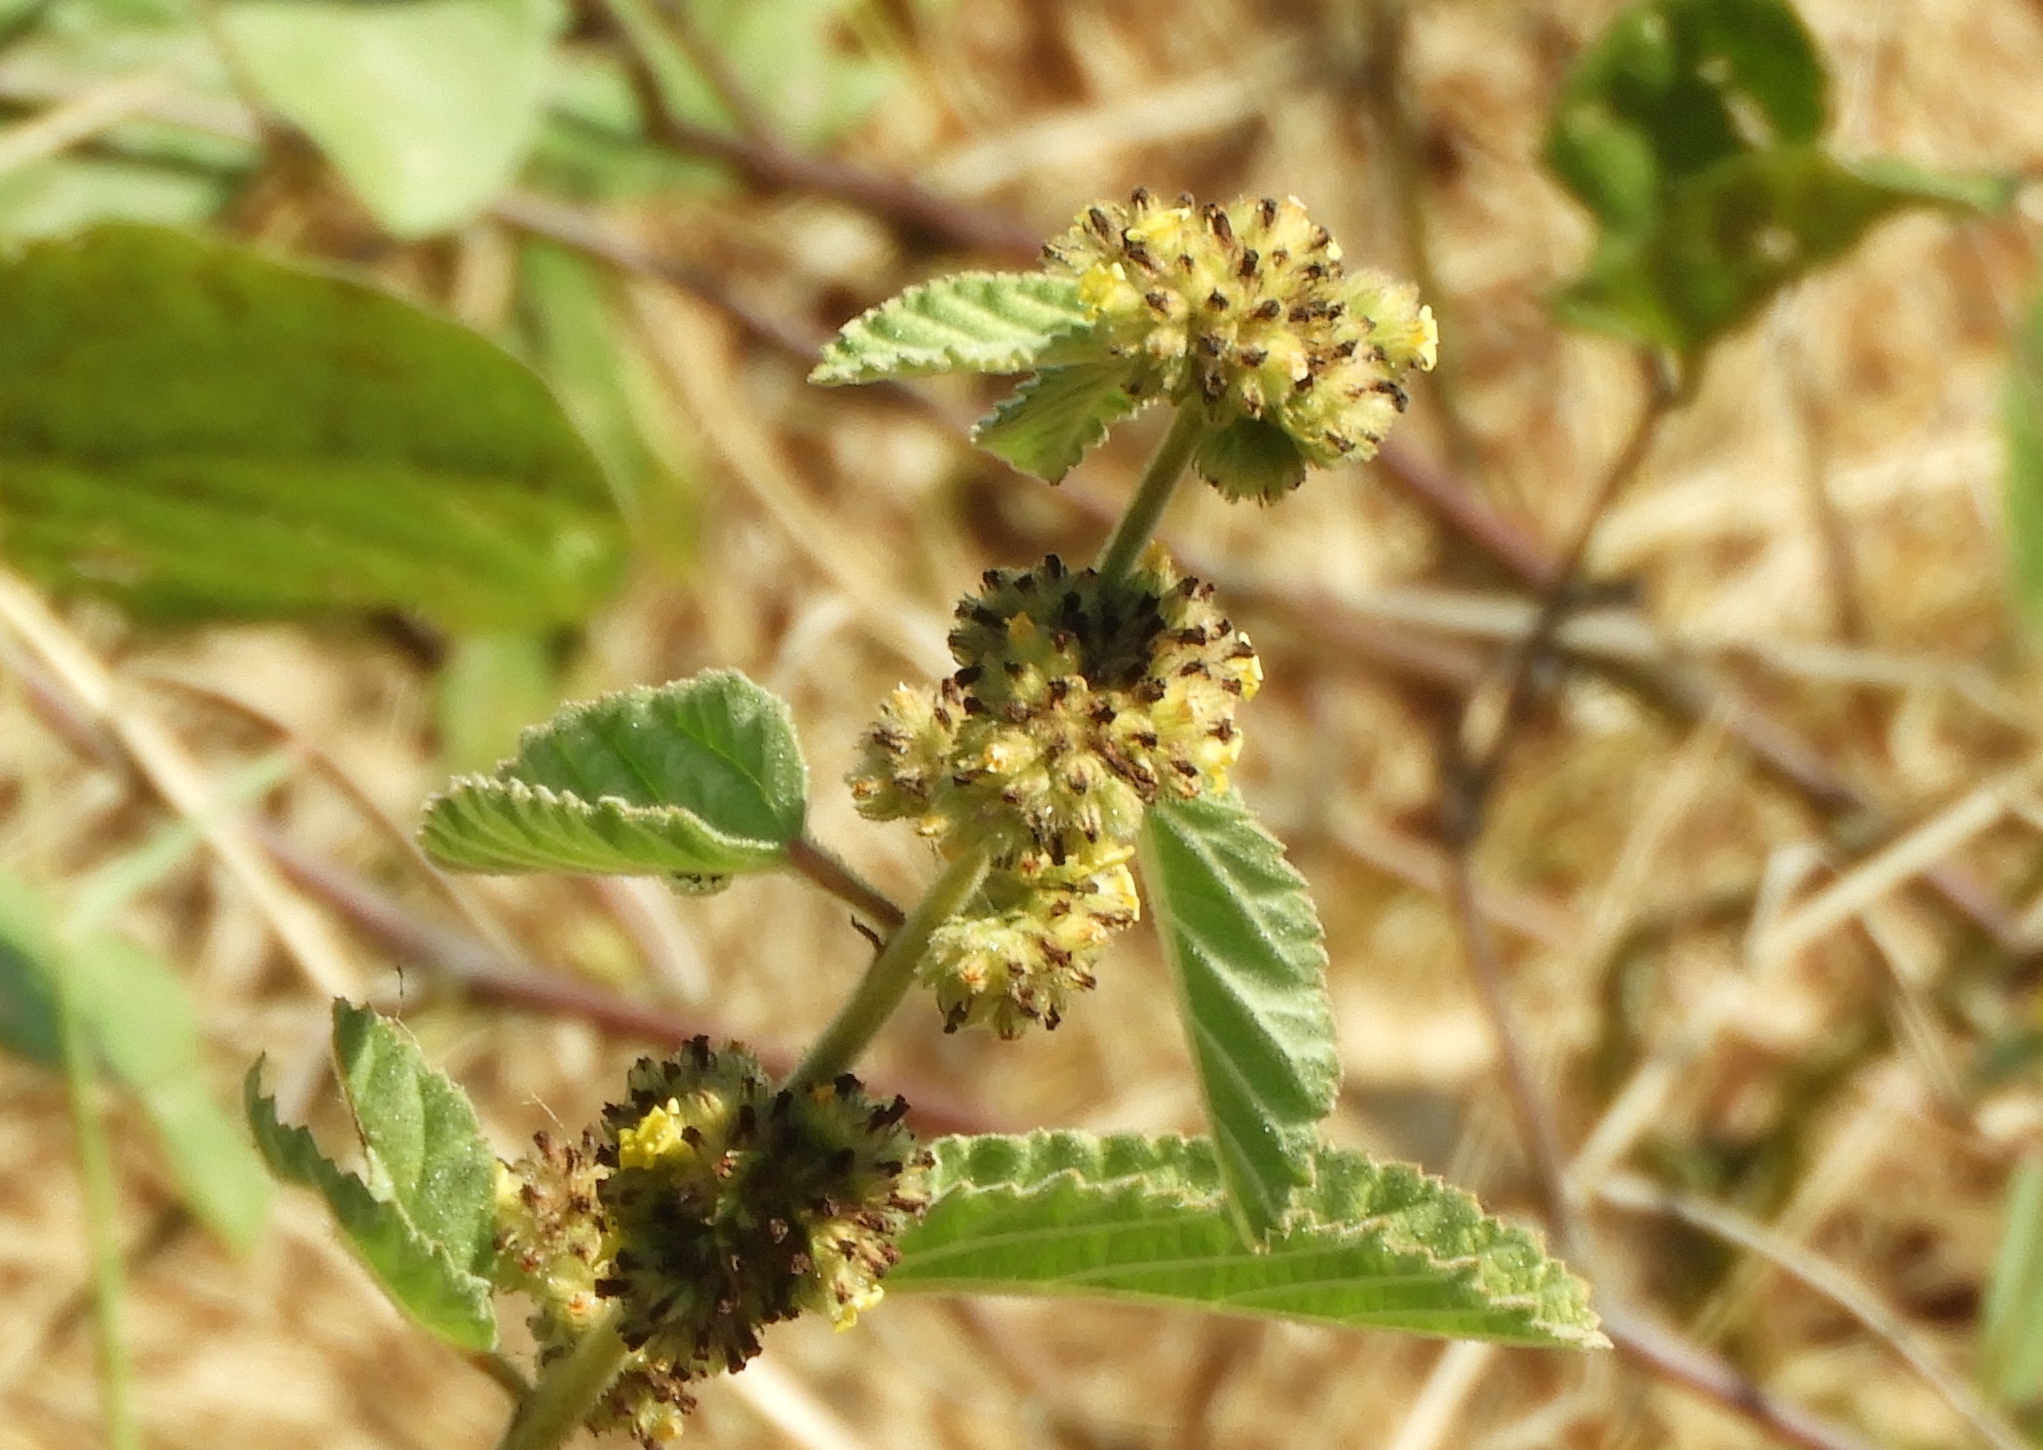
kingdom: Plantae
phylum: Tracheophyta
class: Magnoliopsida
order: Malvales
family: Malvaceae
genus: Waltheria
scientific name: Waltheria indica
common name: Leather-coat
